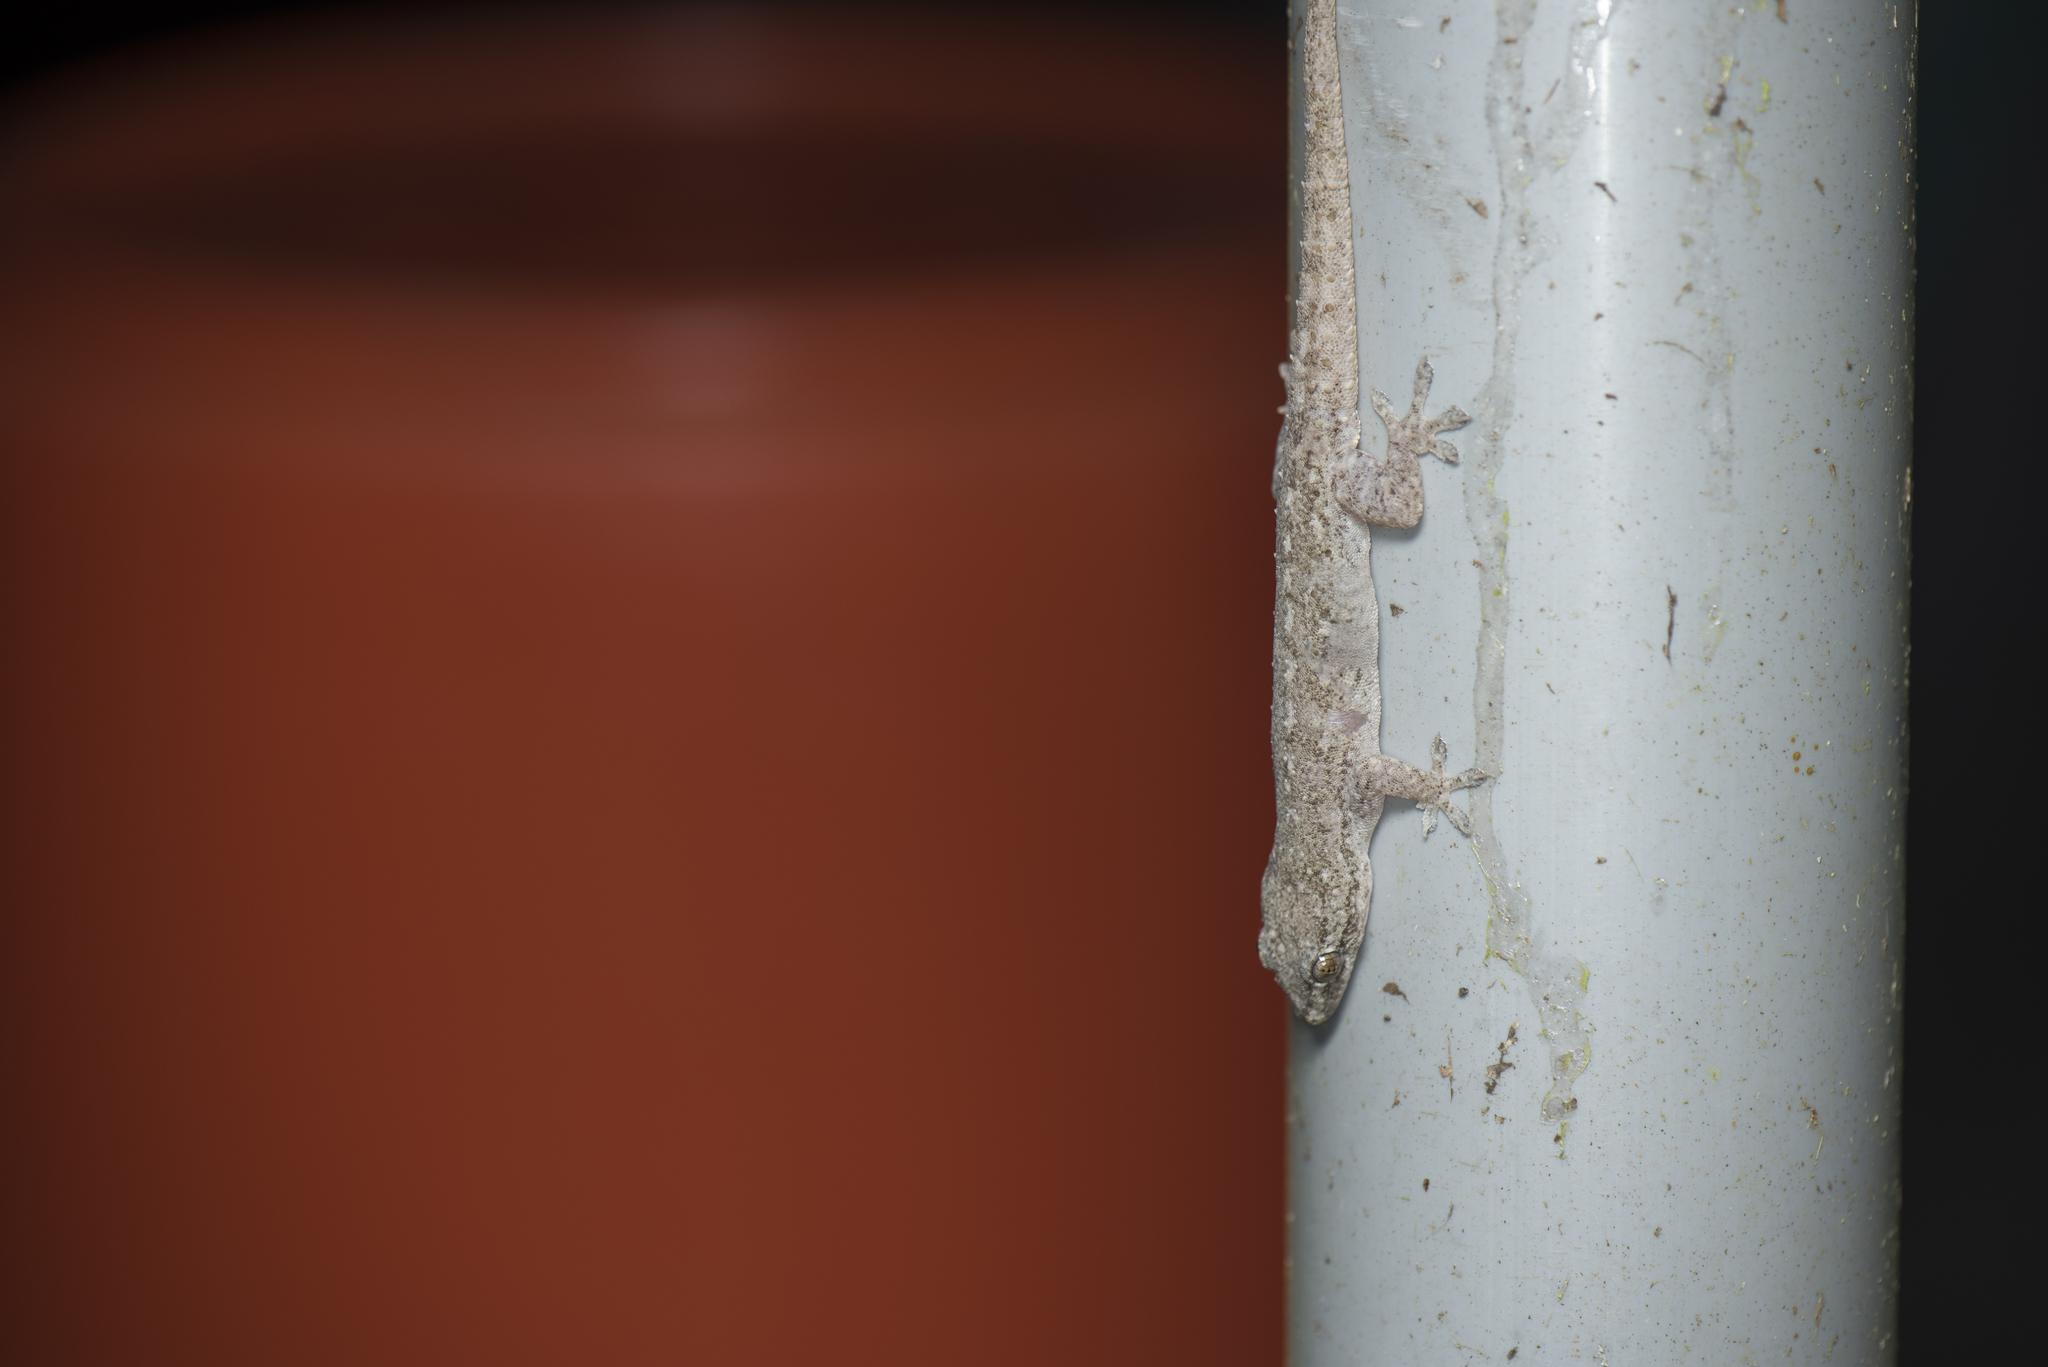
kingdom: Animalia
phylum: Chordata
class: Squamata
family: Gekkonidae
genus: Hemidactylus
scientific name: Hemidactylus frenatus
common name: Common house gecko
